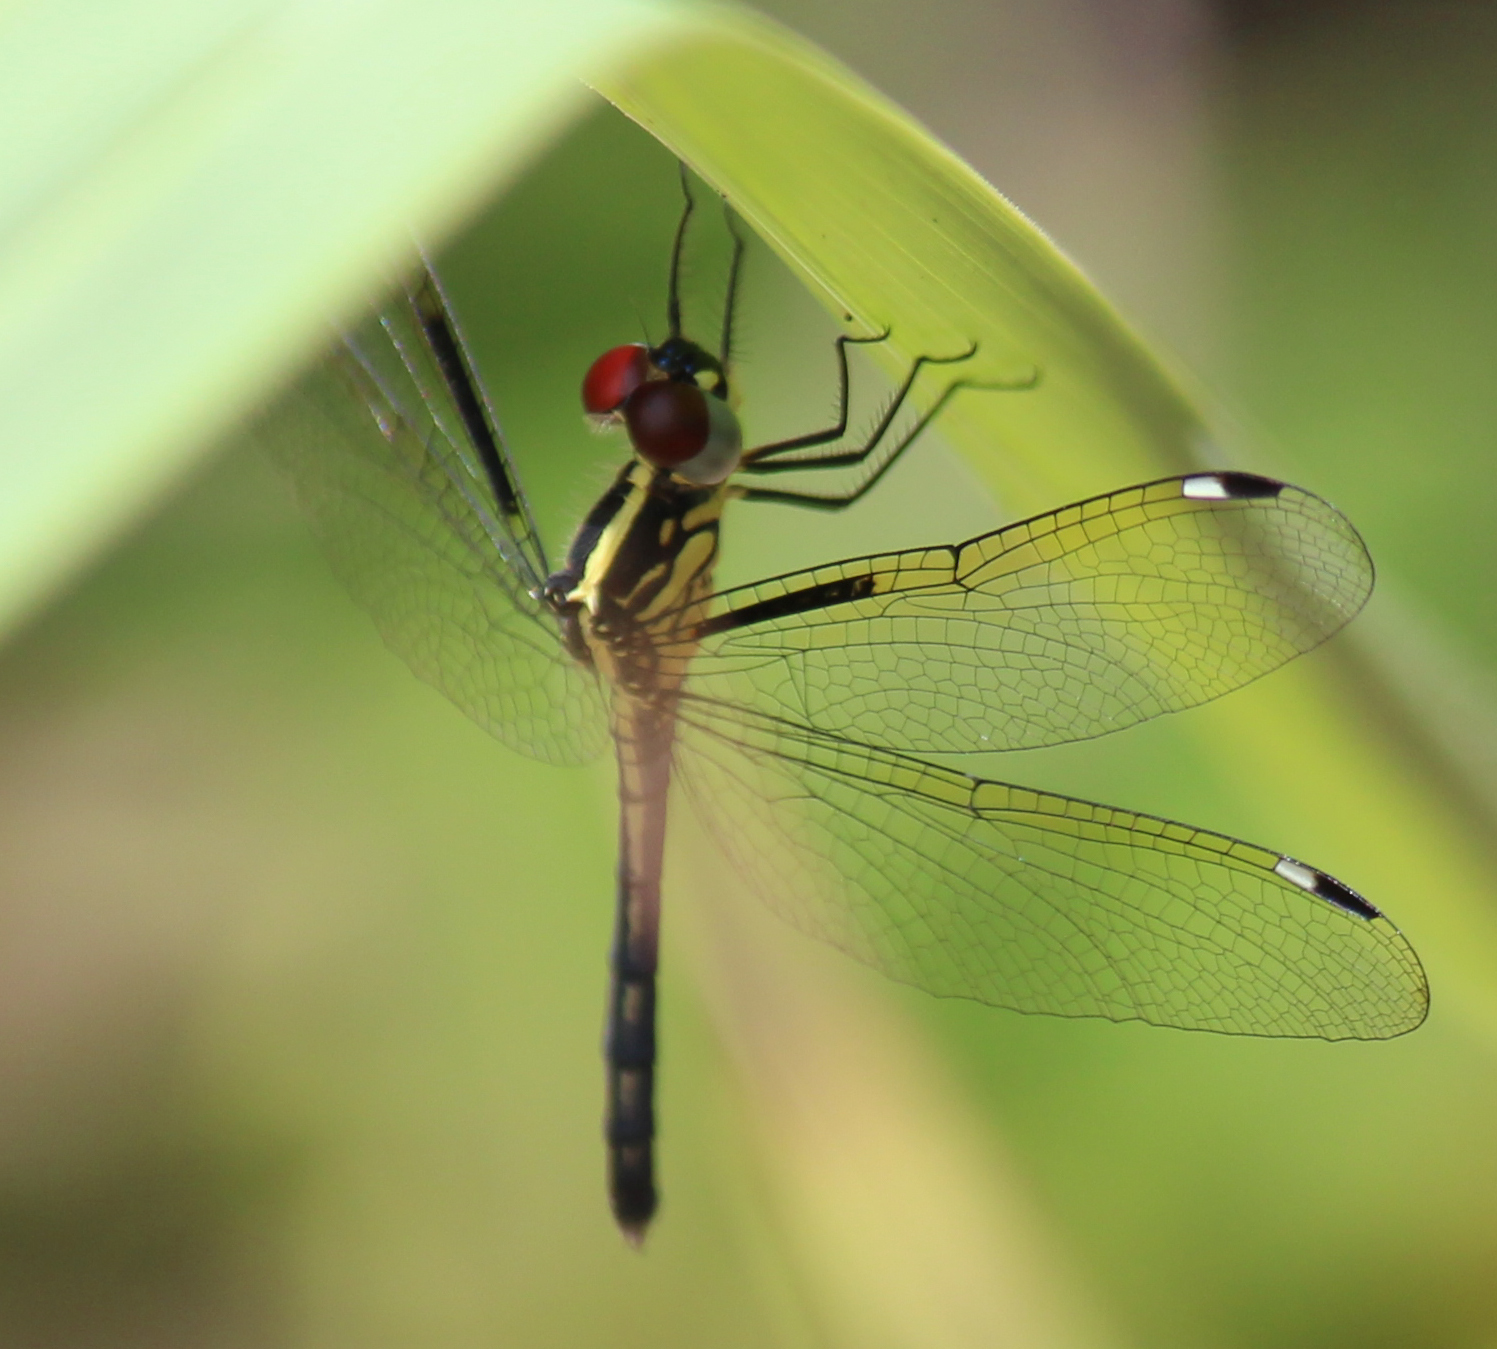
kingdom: Animalia
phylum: Arthropoda
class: Insecta
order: Odonata
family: Libellulidae
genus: Hemistigma
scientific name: Hemistigma albipunctum
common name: African pied-spot
